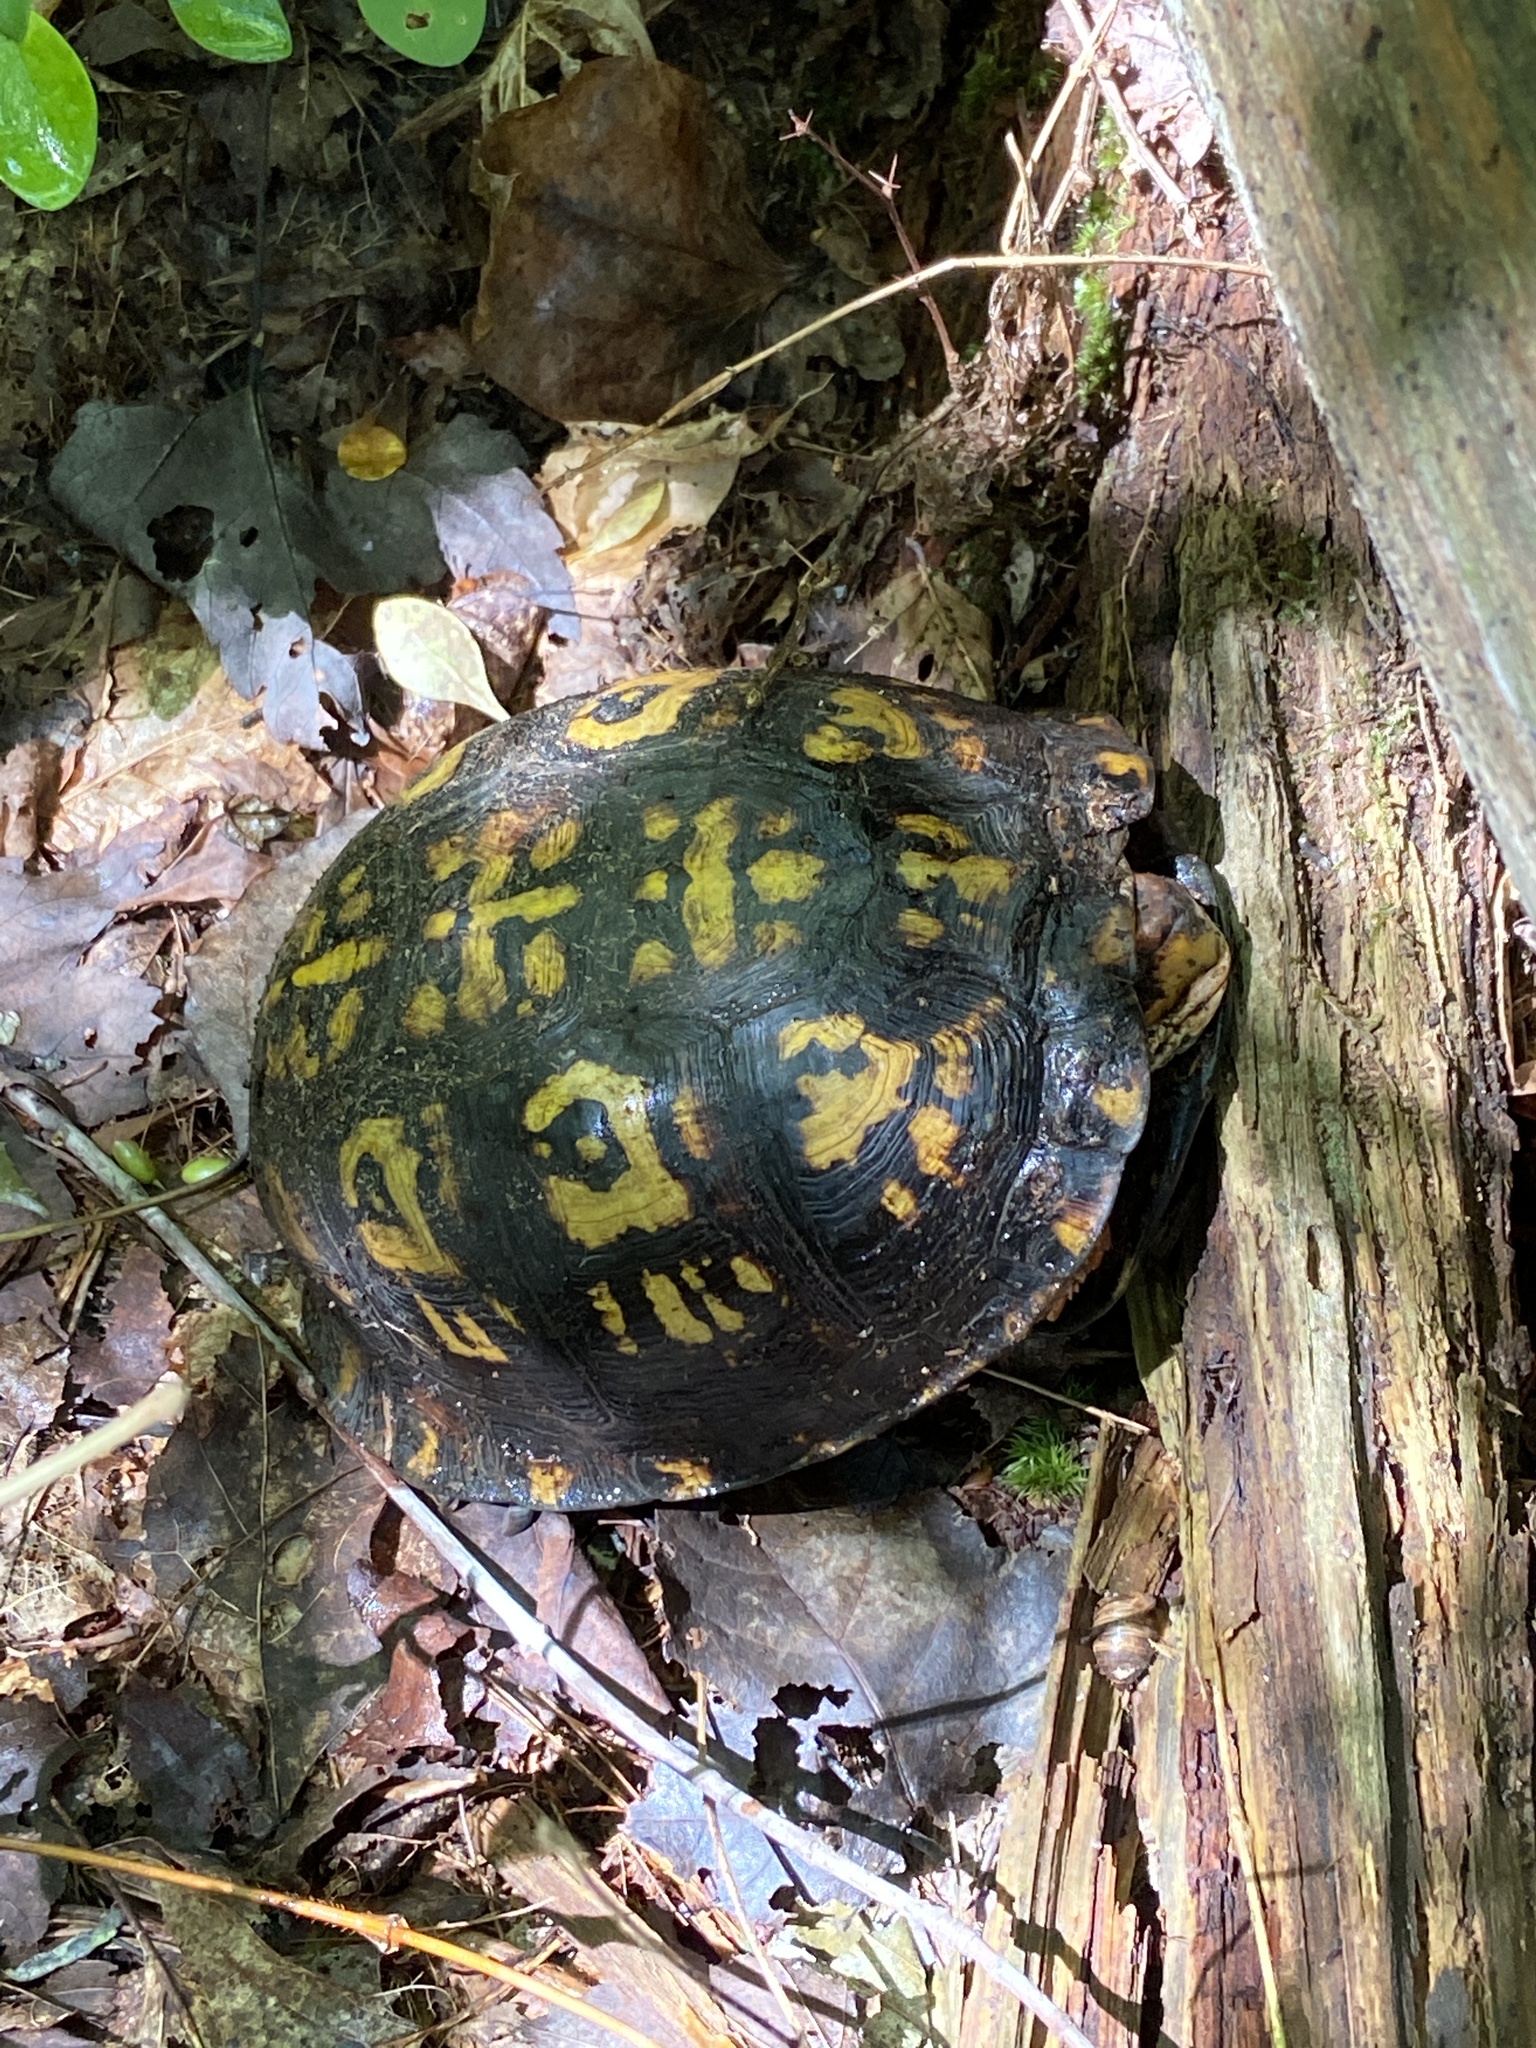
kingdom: Animalia
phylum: Chordata
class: Testudines
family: Emydidae
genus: Terrapene
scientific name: Terrapene carolina
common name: Common box turtle
